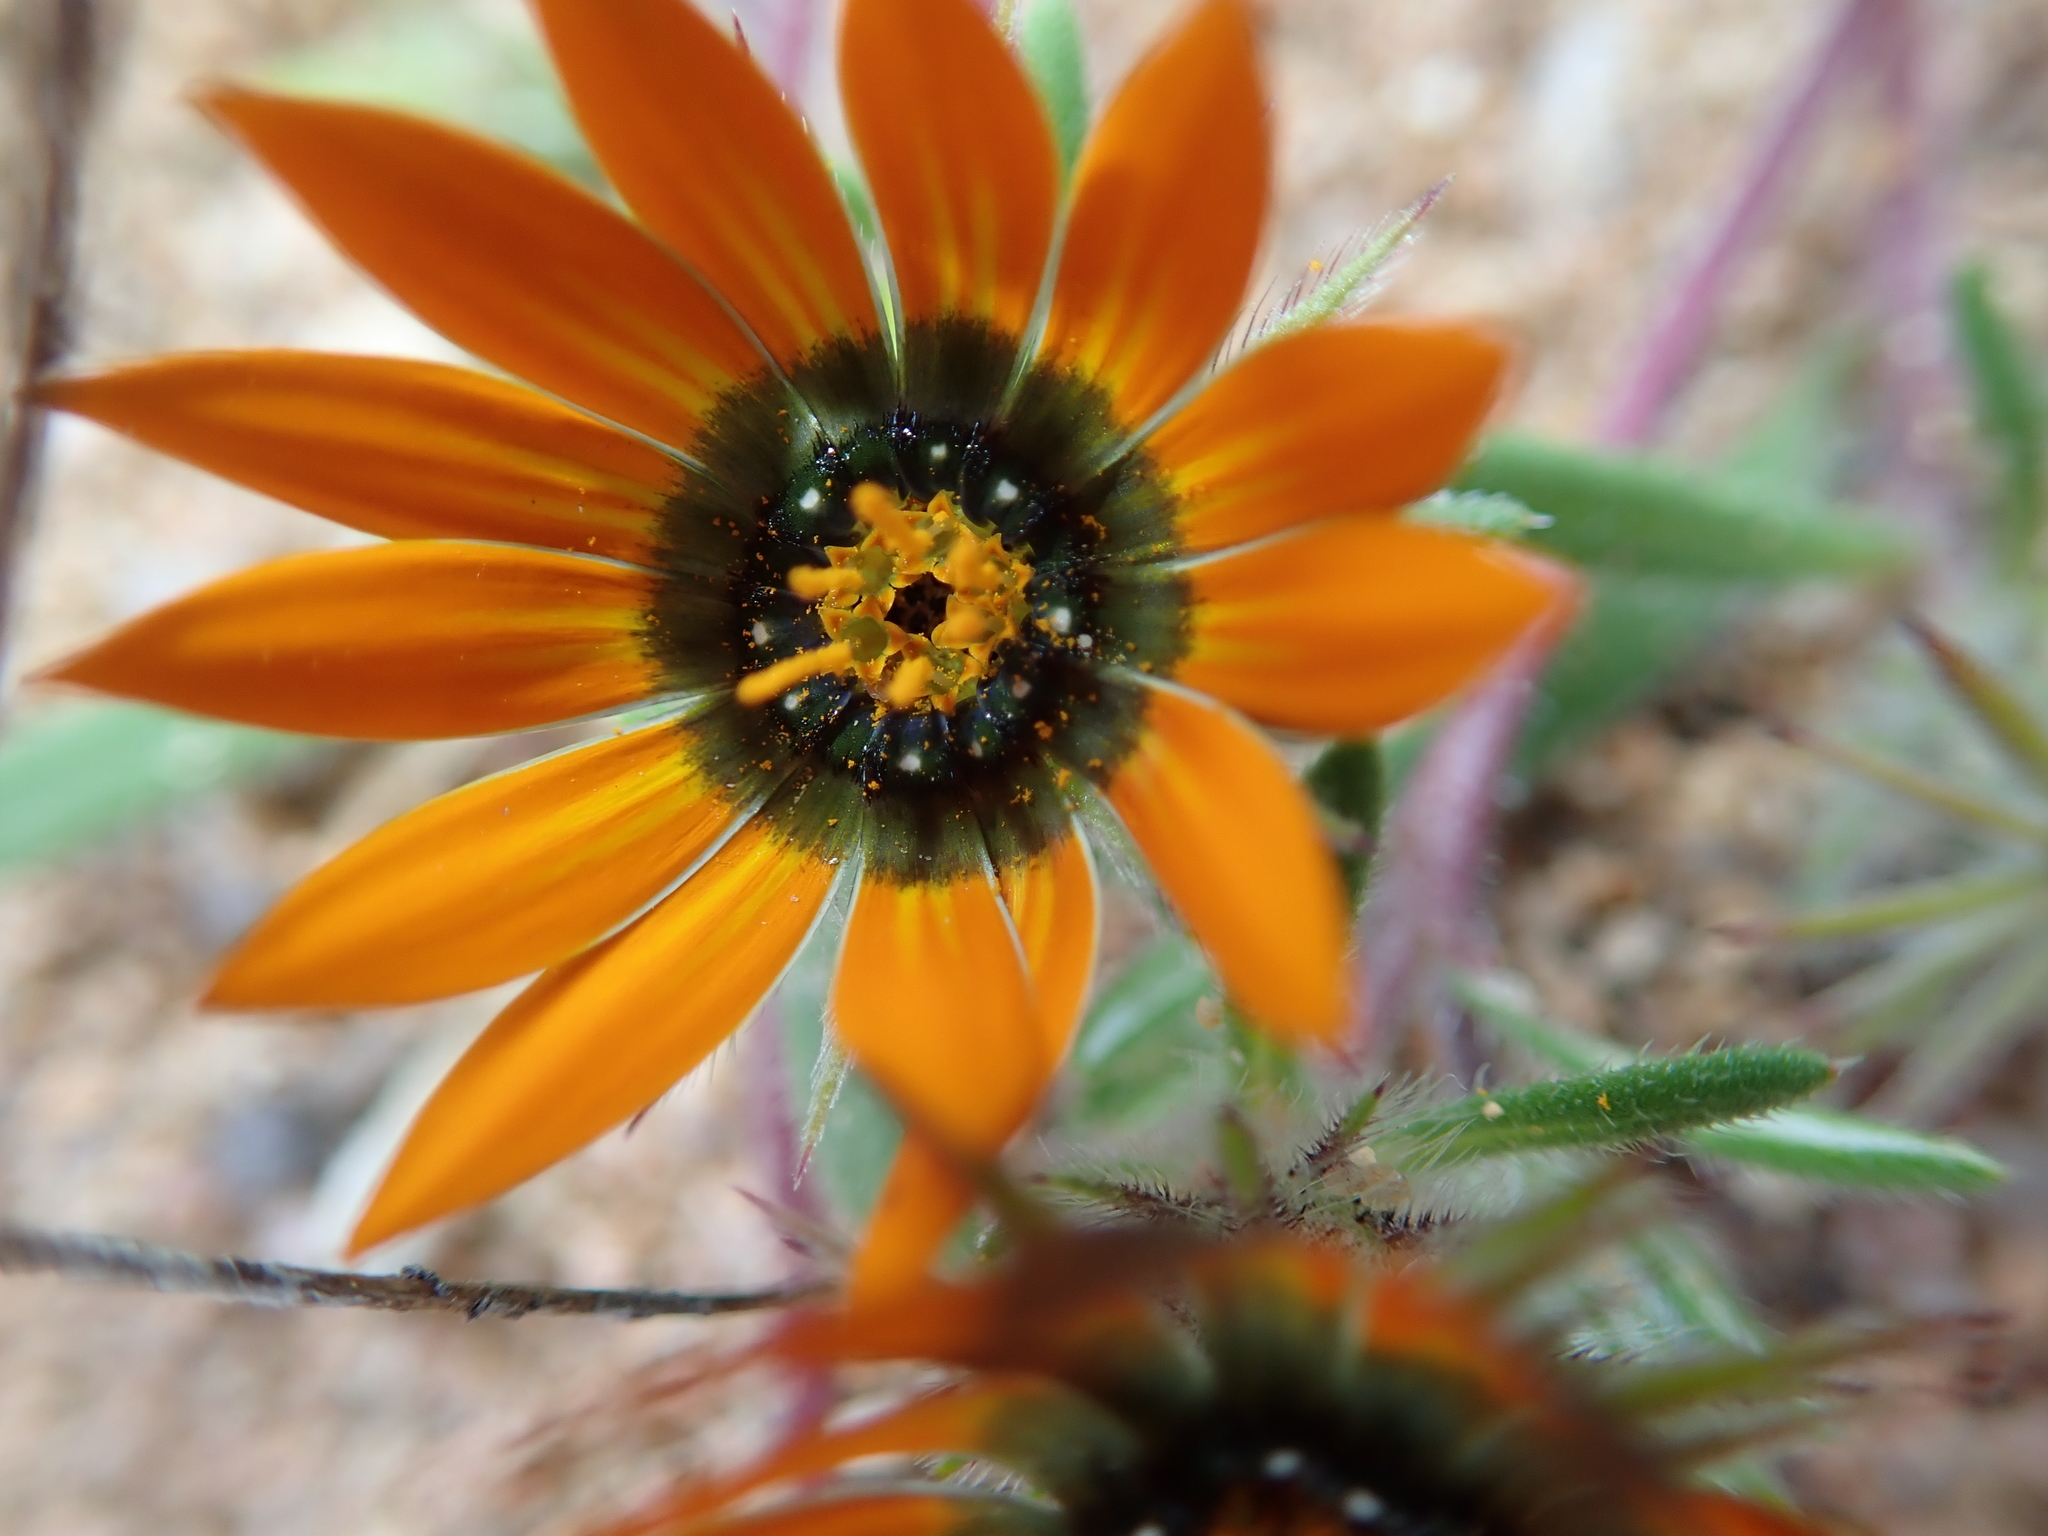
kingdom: Plantae
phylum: Tracheophyta
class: Magnoliopsida
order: Asterales
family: Asteraceae
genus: Gorteria
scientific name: Gorteria diffusa
